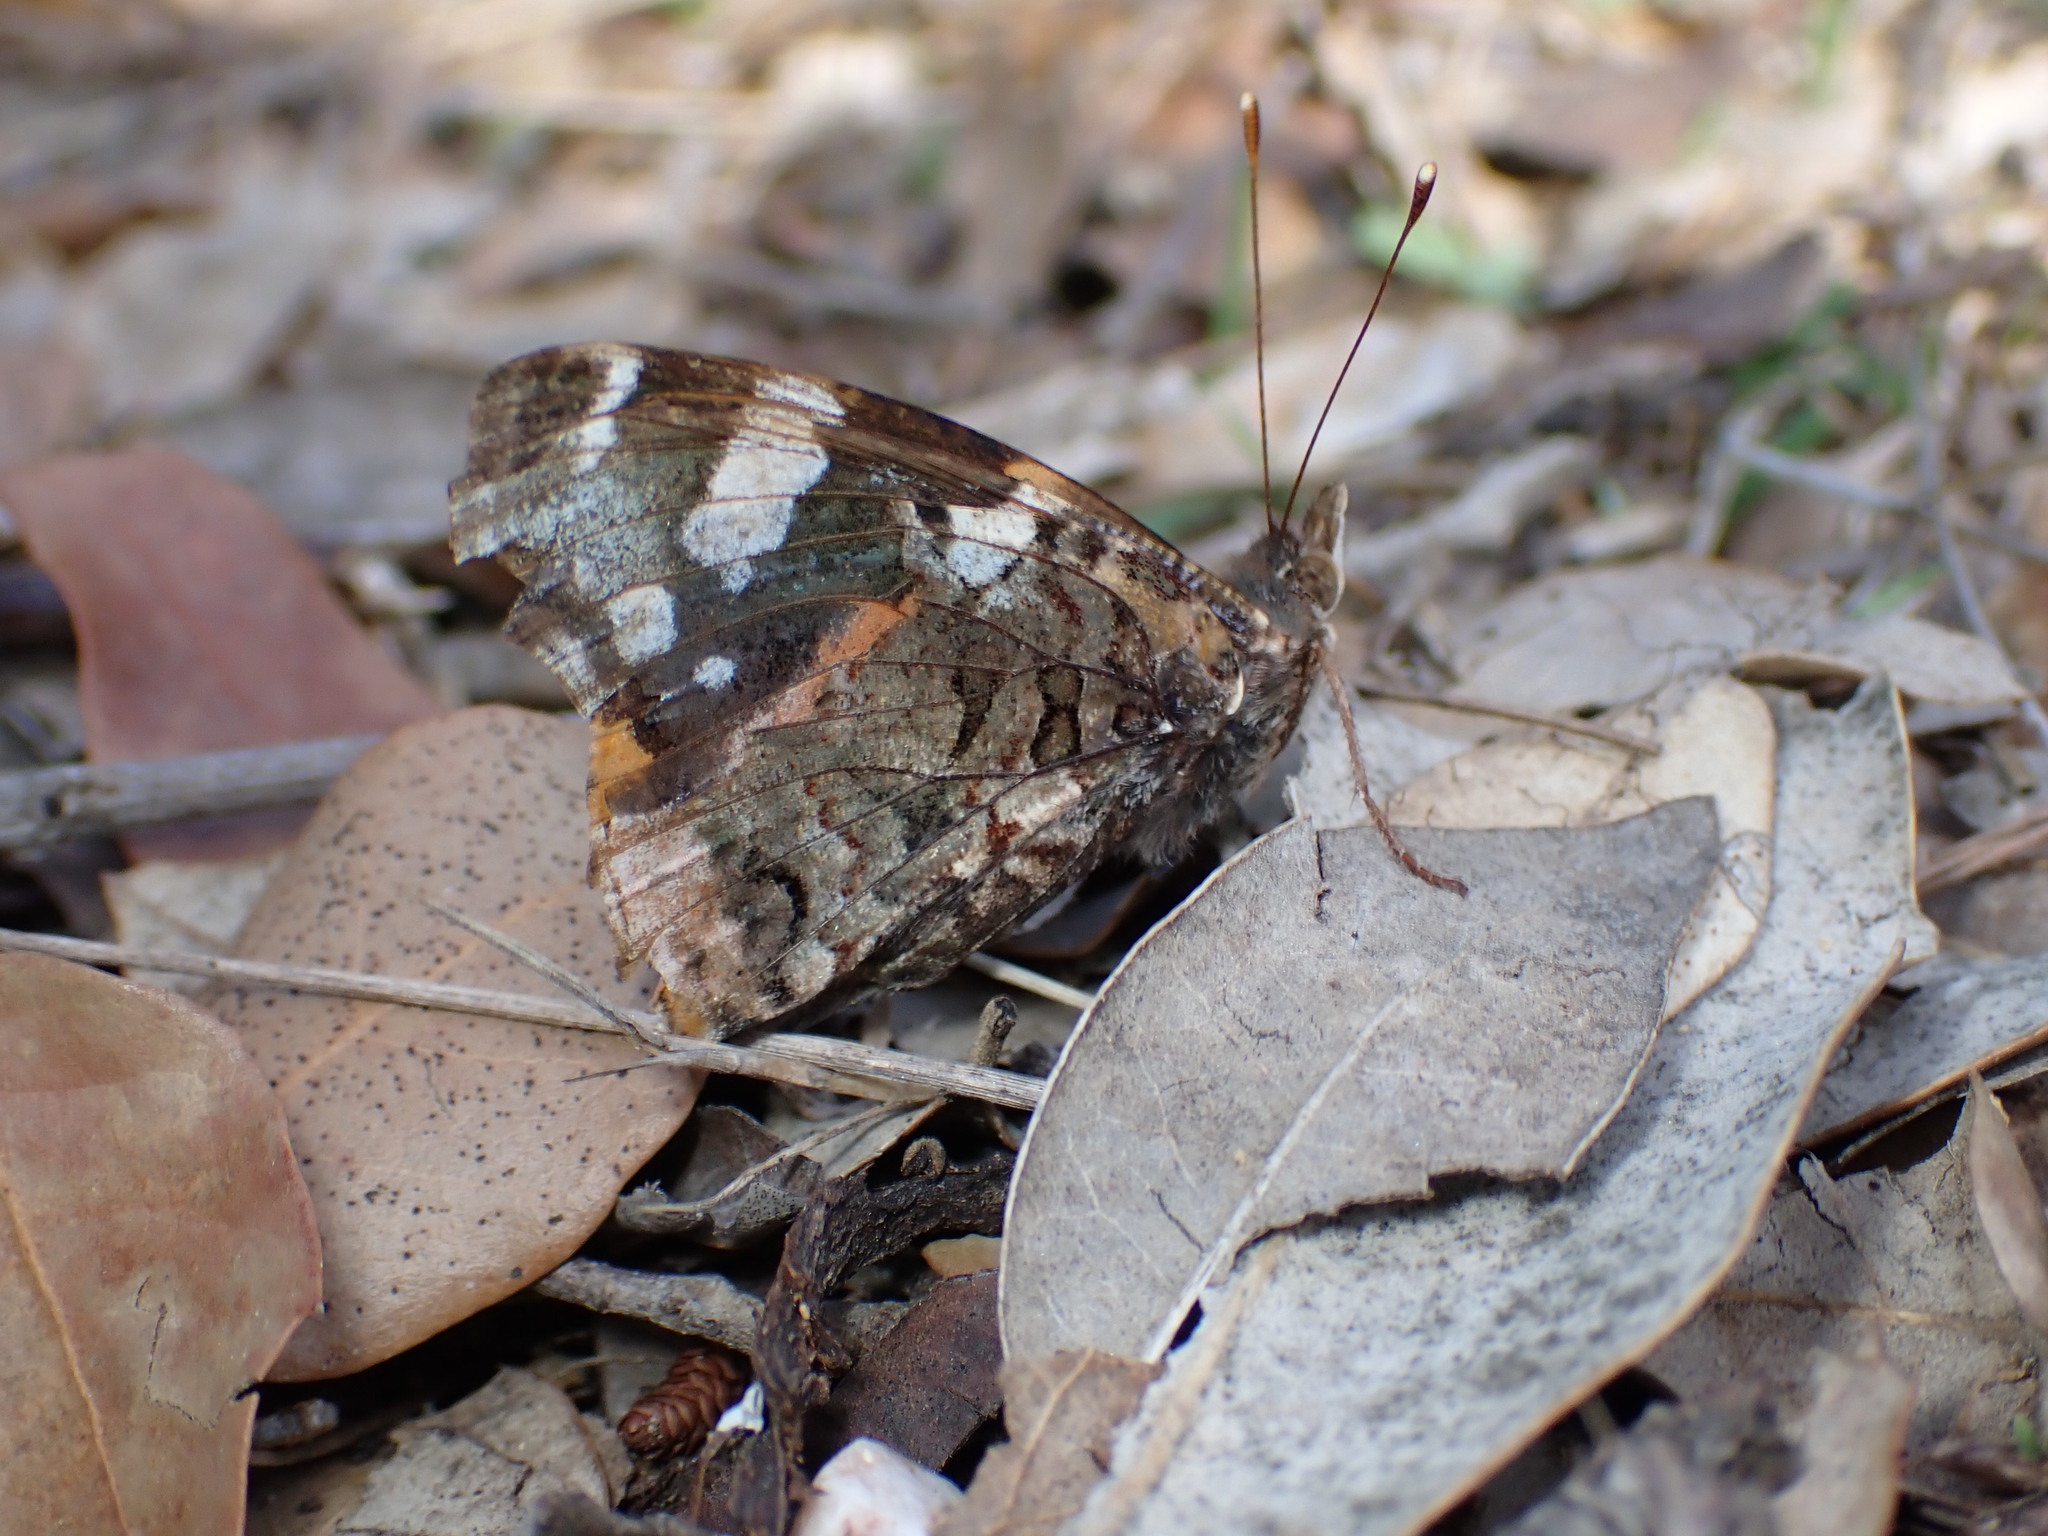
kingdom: Animalia
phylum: Arthropoda
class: Insecta
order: Lepidoptera
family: Nymphalidae
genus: Vanessa
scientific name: Vanessa atalanta
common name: Red admiral
